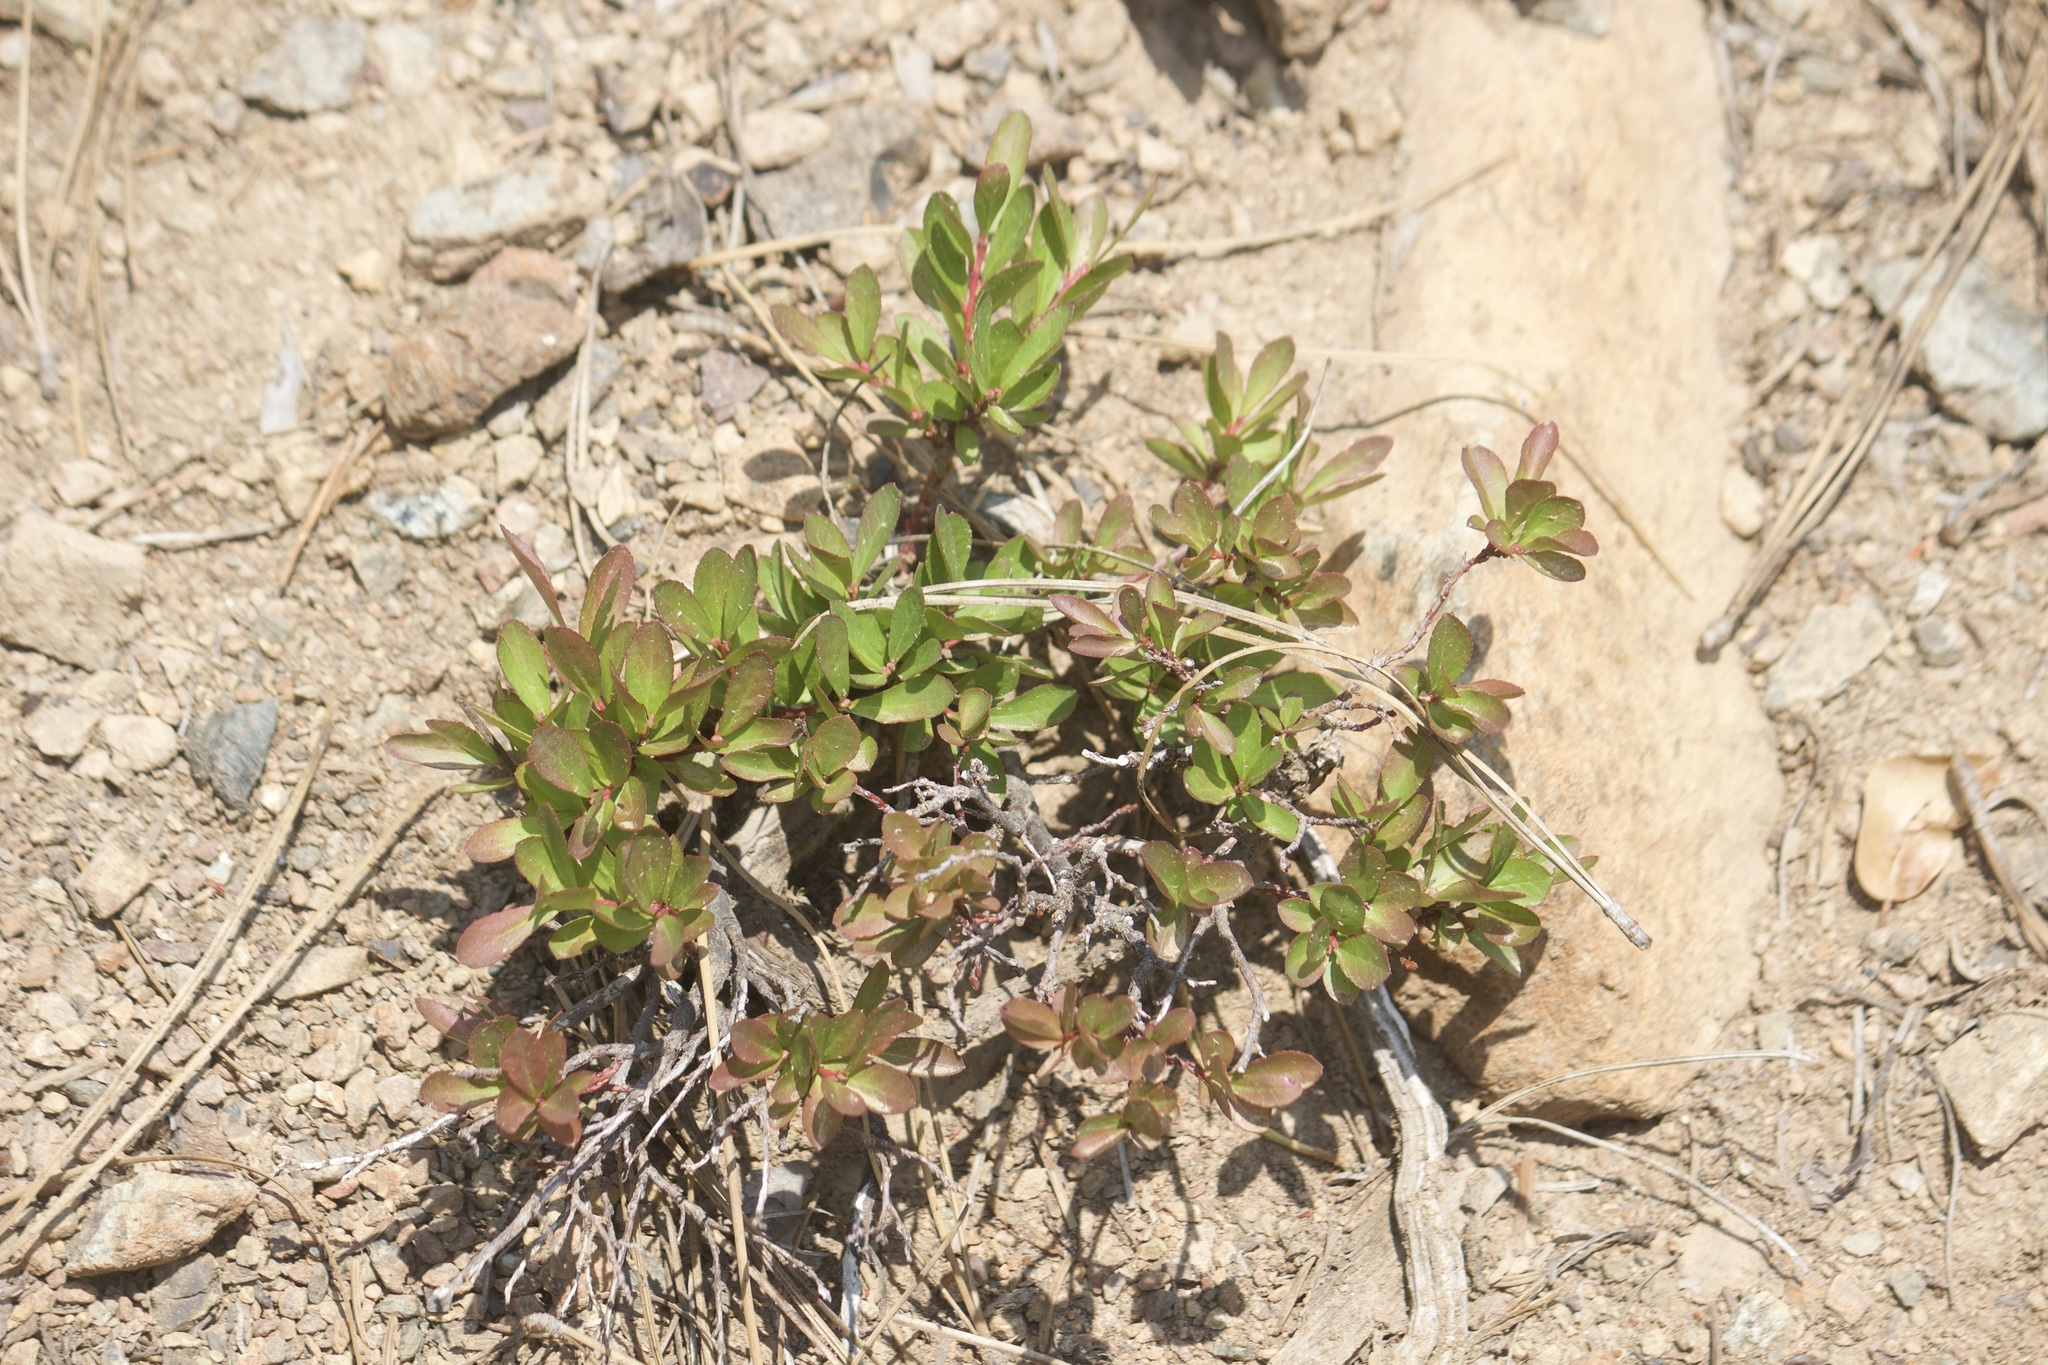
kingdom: Plantae
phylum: Tracheophyta
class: Magnoliopsida
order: Ericales
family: Ericaceae
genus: Vaccinium
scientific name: Vaccinium cespitosum
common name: Dwarf bilberry
